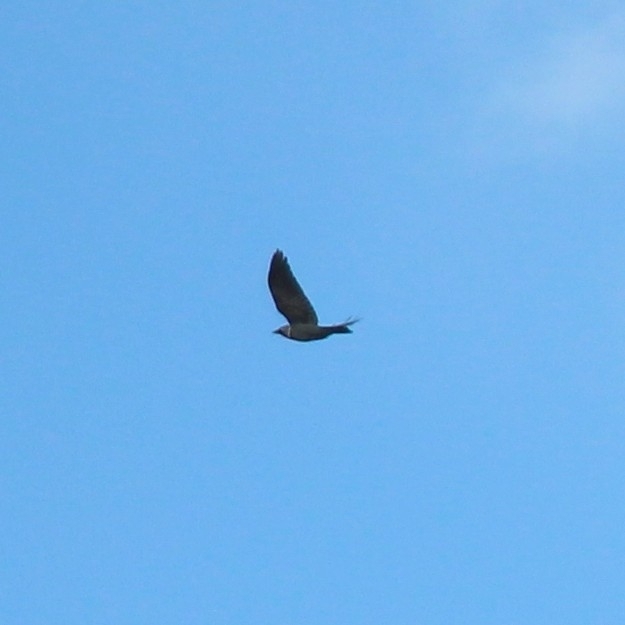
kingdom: Animalia
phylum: Chordata
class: Aves
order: Passeriformes
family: Corvidae
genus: Coloeus
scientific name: Coloeus monedula
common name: Western jackdaw
